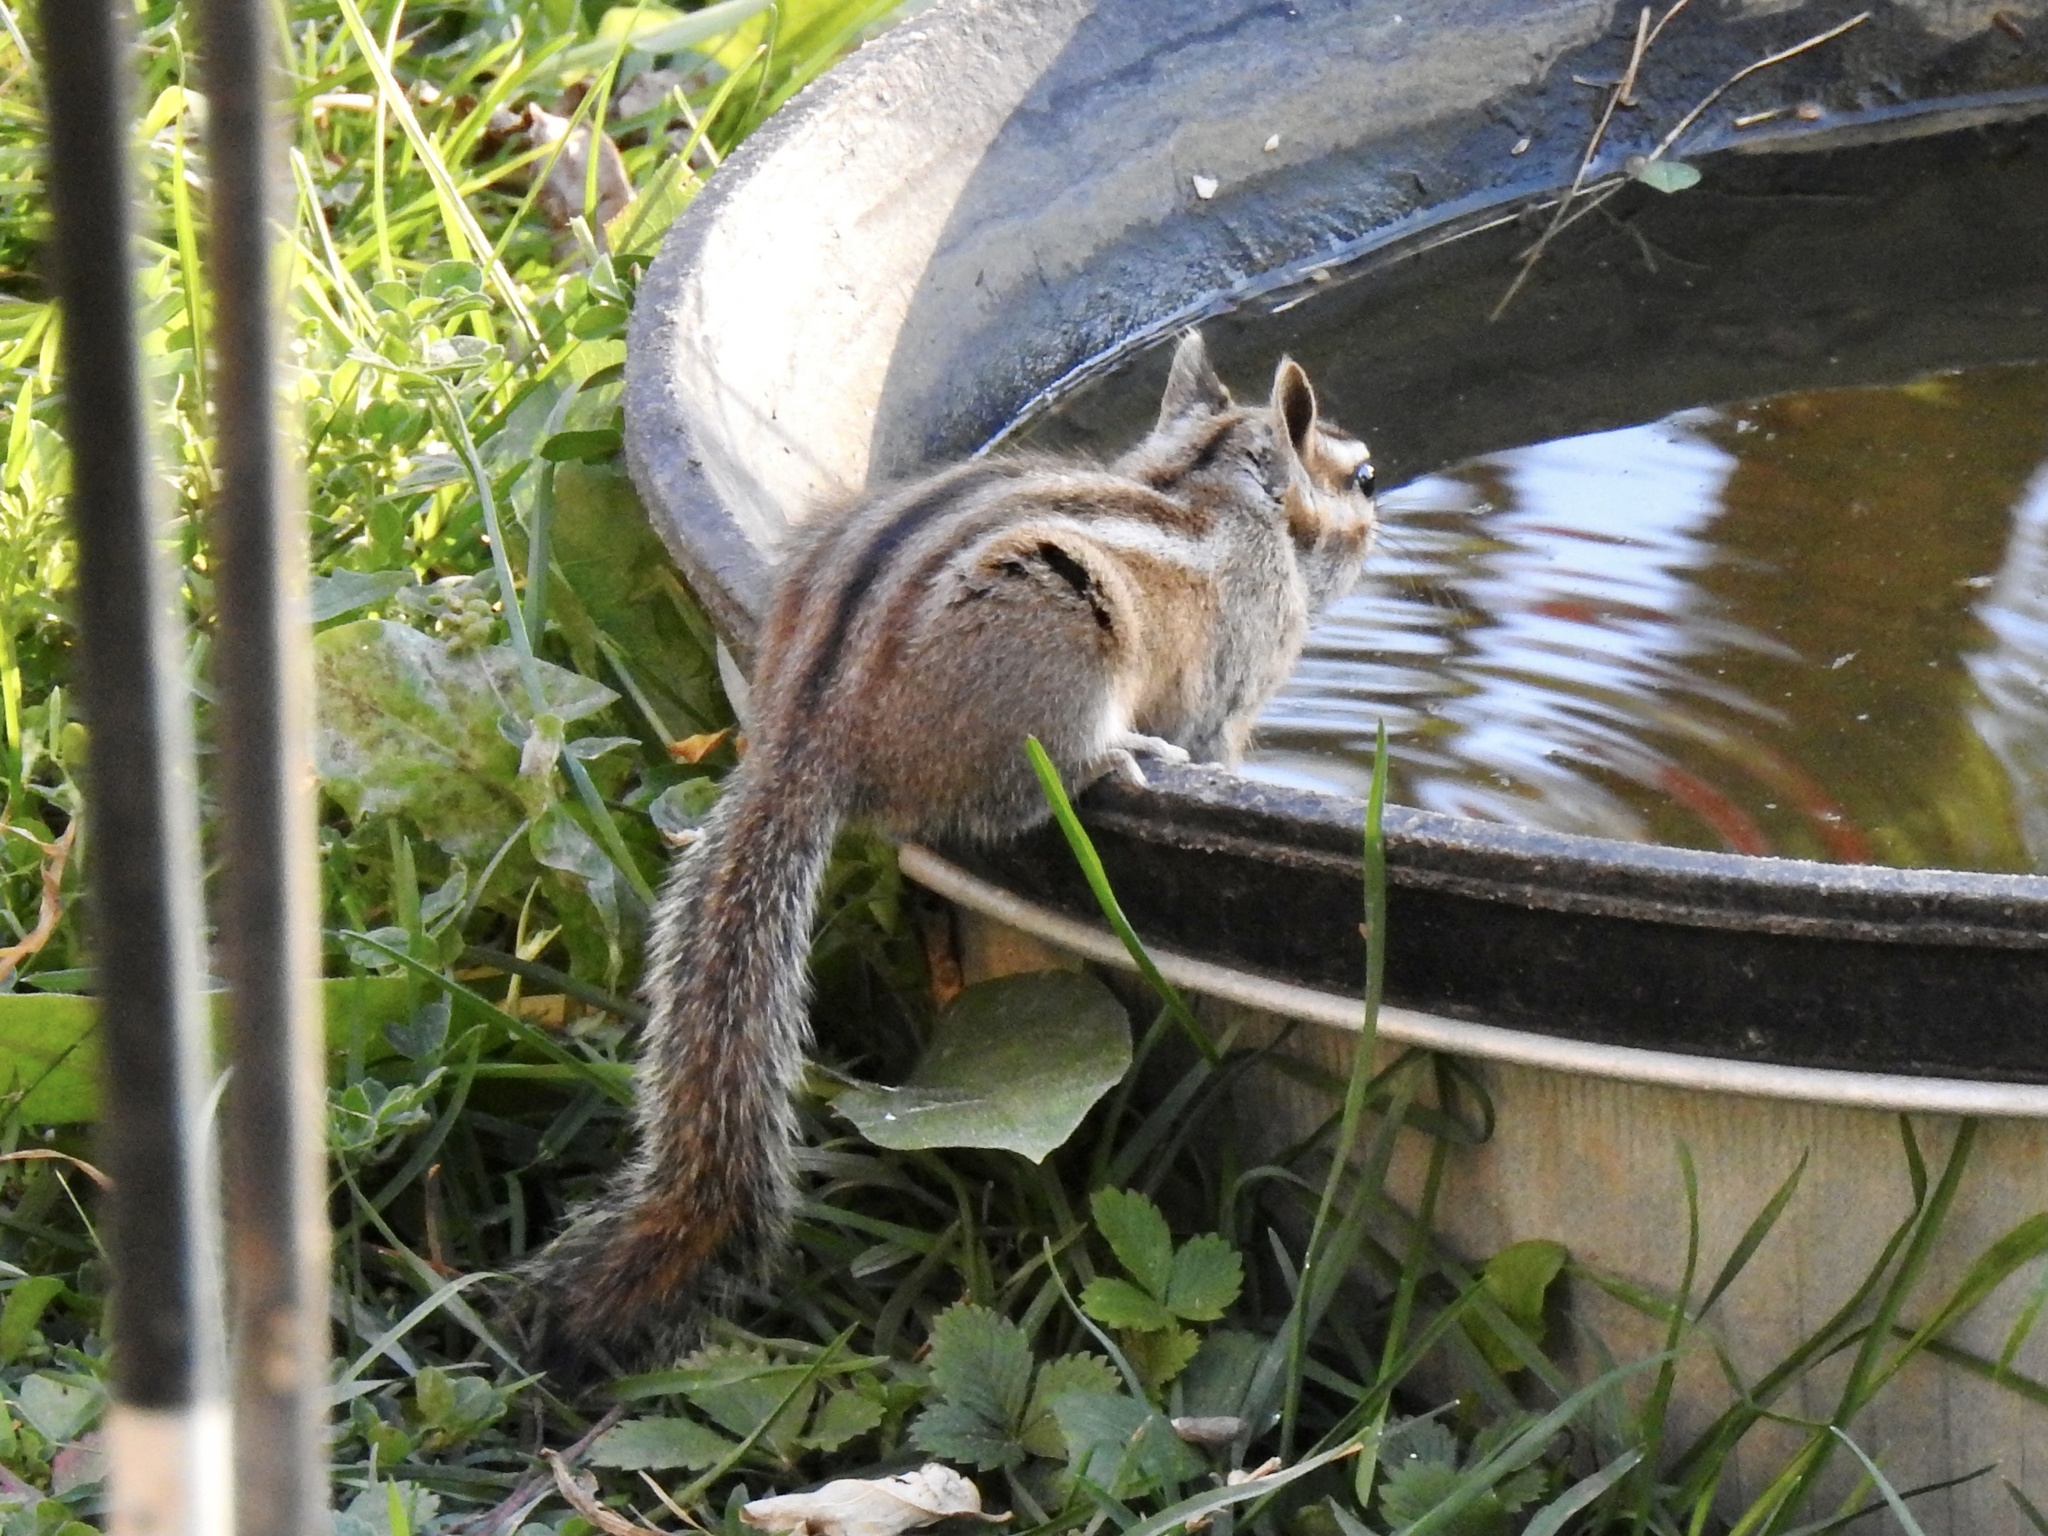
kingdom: Animalia
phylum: Chordata
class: Mammalia
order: Rodentia
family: Sciuridae
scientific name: Sciuridae
